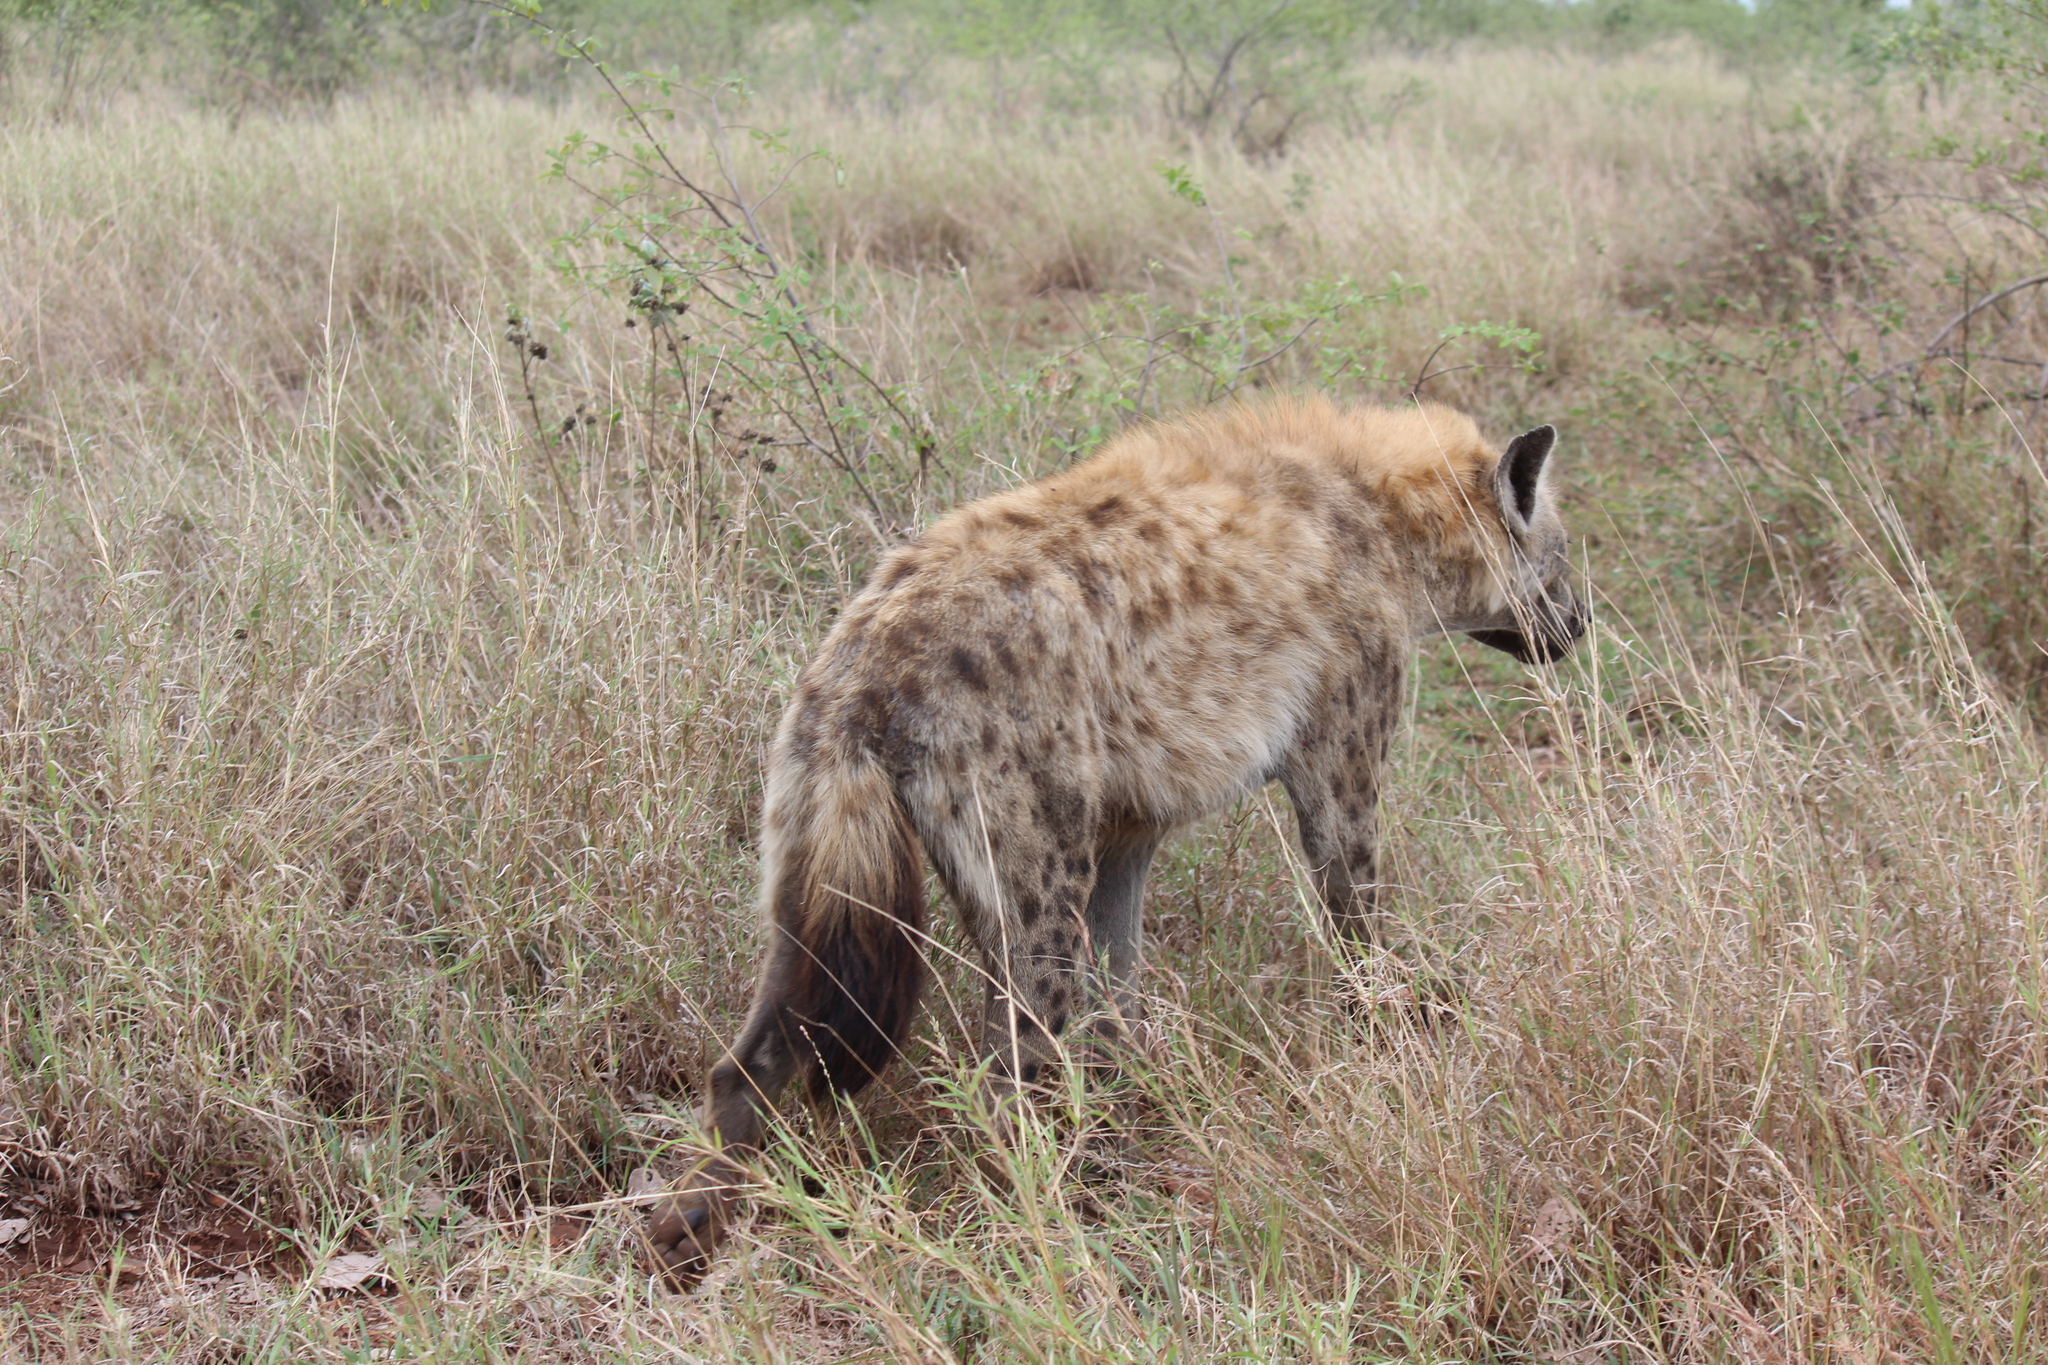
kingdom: Animalia
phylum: Chordata
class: Mammalia
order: Carnivora
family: Hyaenidae
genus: Crocuta
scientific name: Crocuta crocuta
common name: Spotted hyaena
